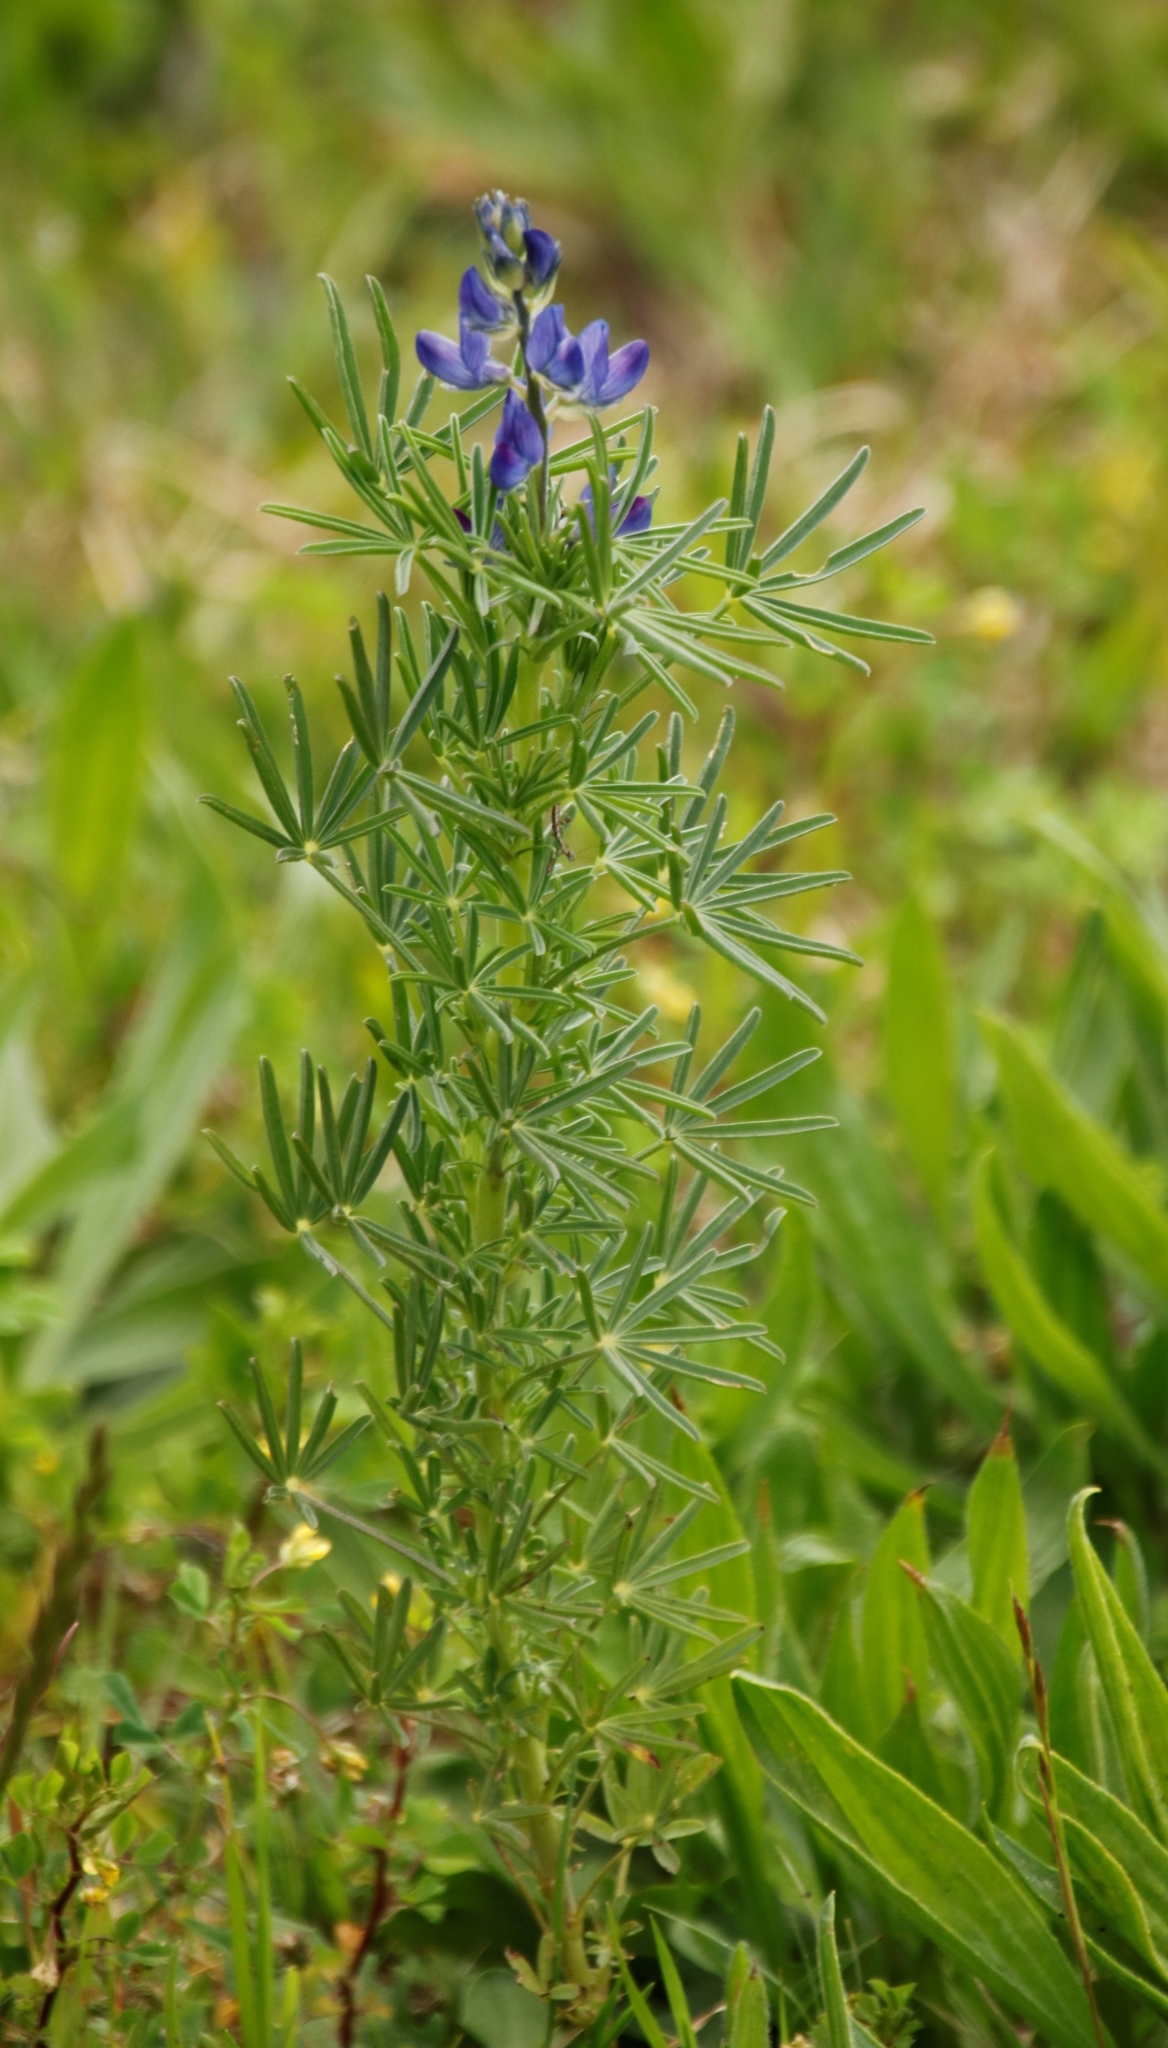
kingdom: Plantae
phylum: Tracheophyta
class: Magnoliopsida
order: Fabales
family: Fabaceae
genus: Lupinus
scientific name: Lupinus angustifolius
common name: Narrow-leaved lupin
